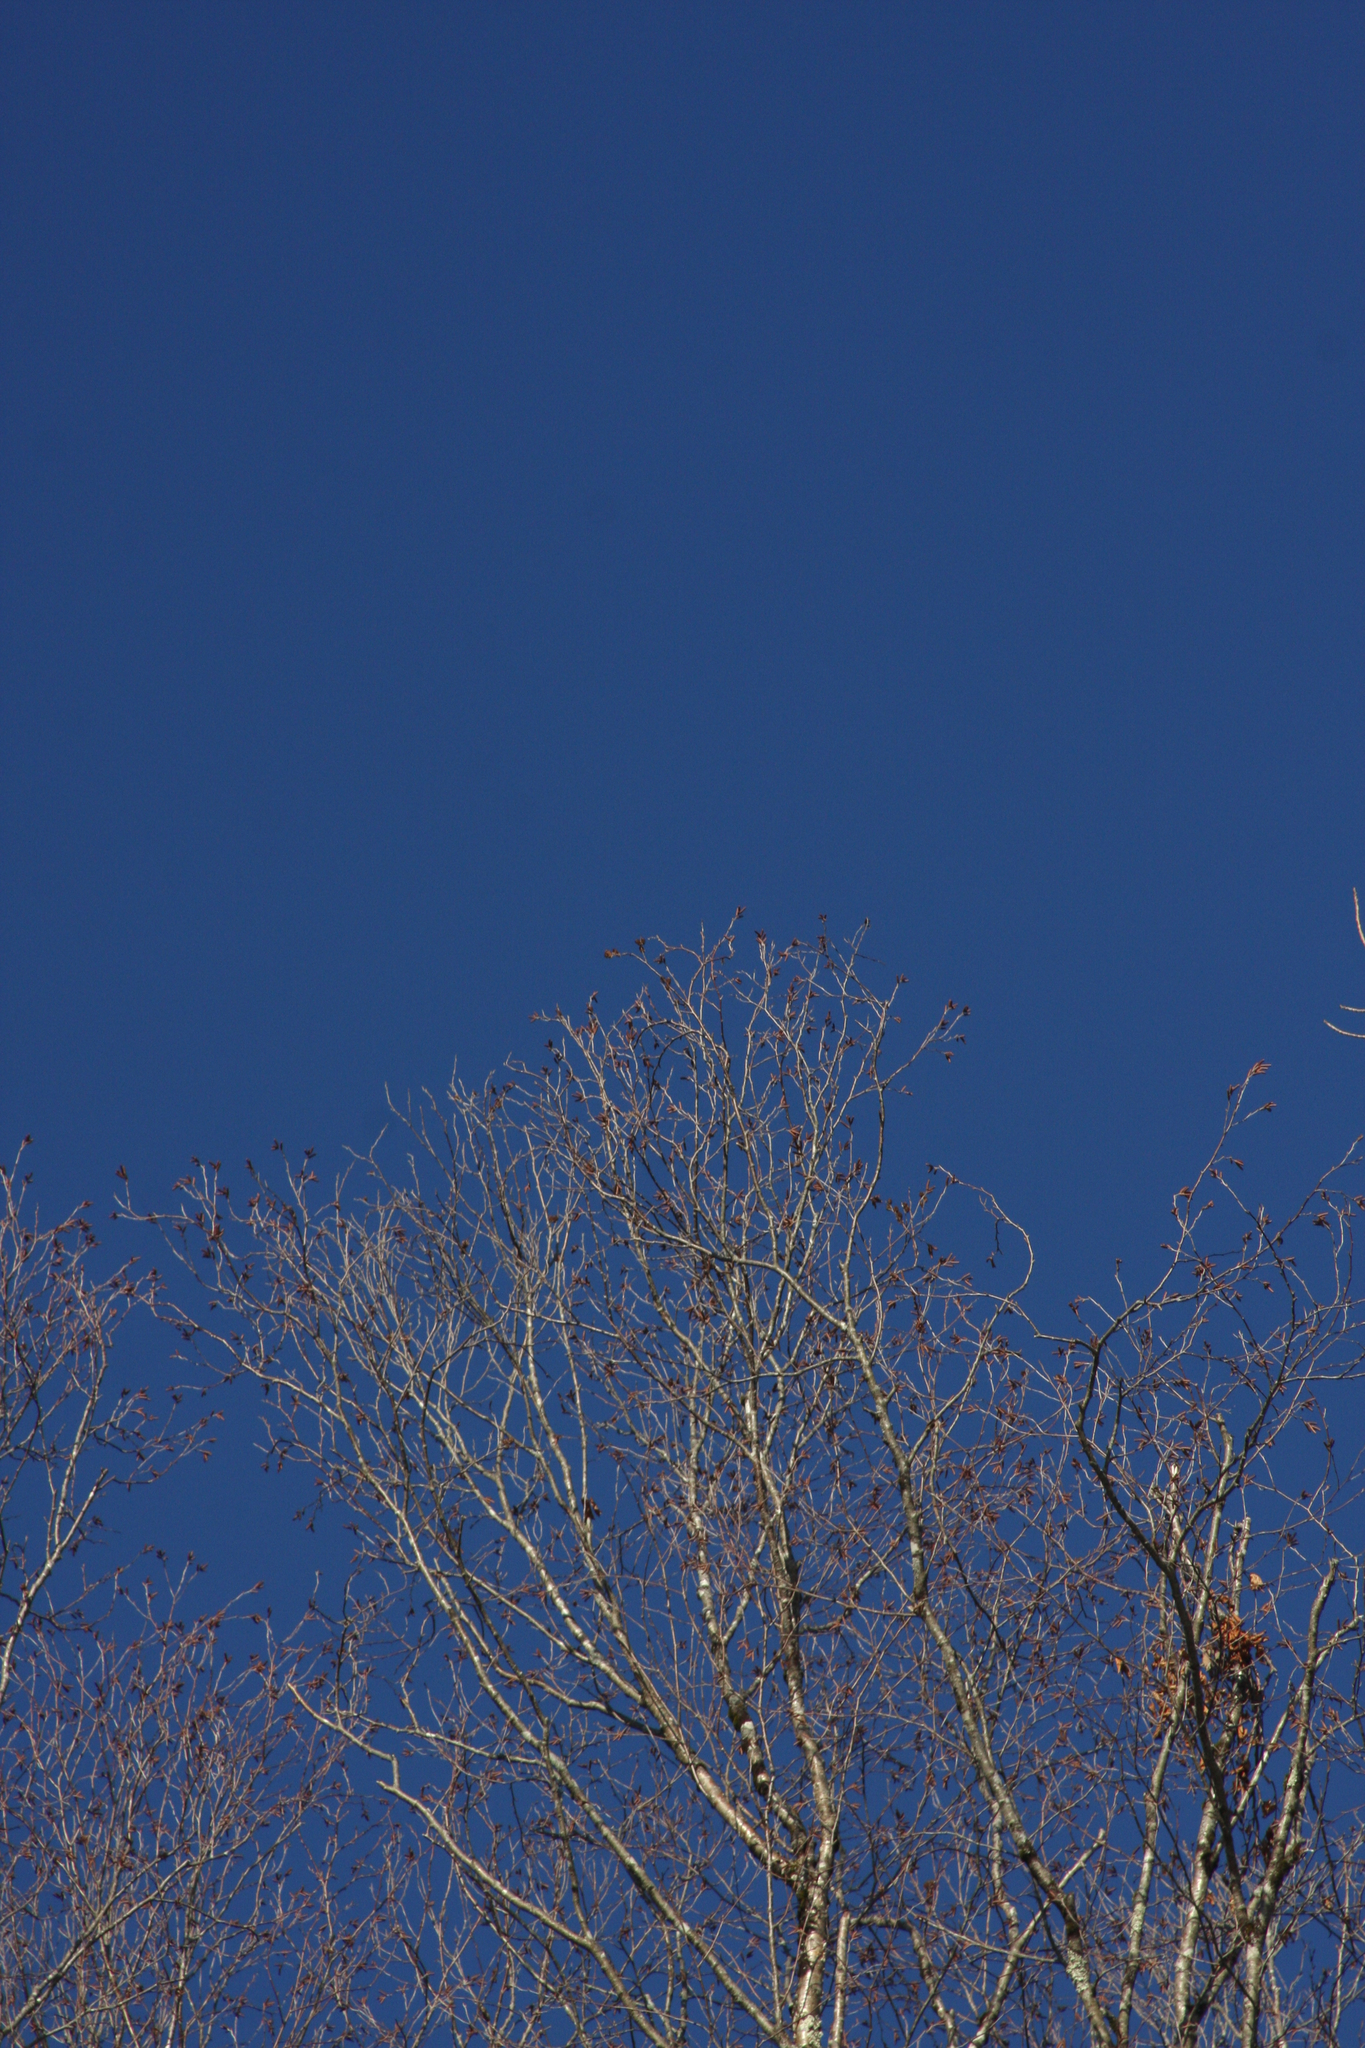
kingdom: Plantae
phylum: Tracheophyta
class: Magnoliopsida
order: Fagales
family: Betulaceae
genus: Betula
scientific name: Betula alleghaniensis
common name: Yellow birch
